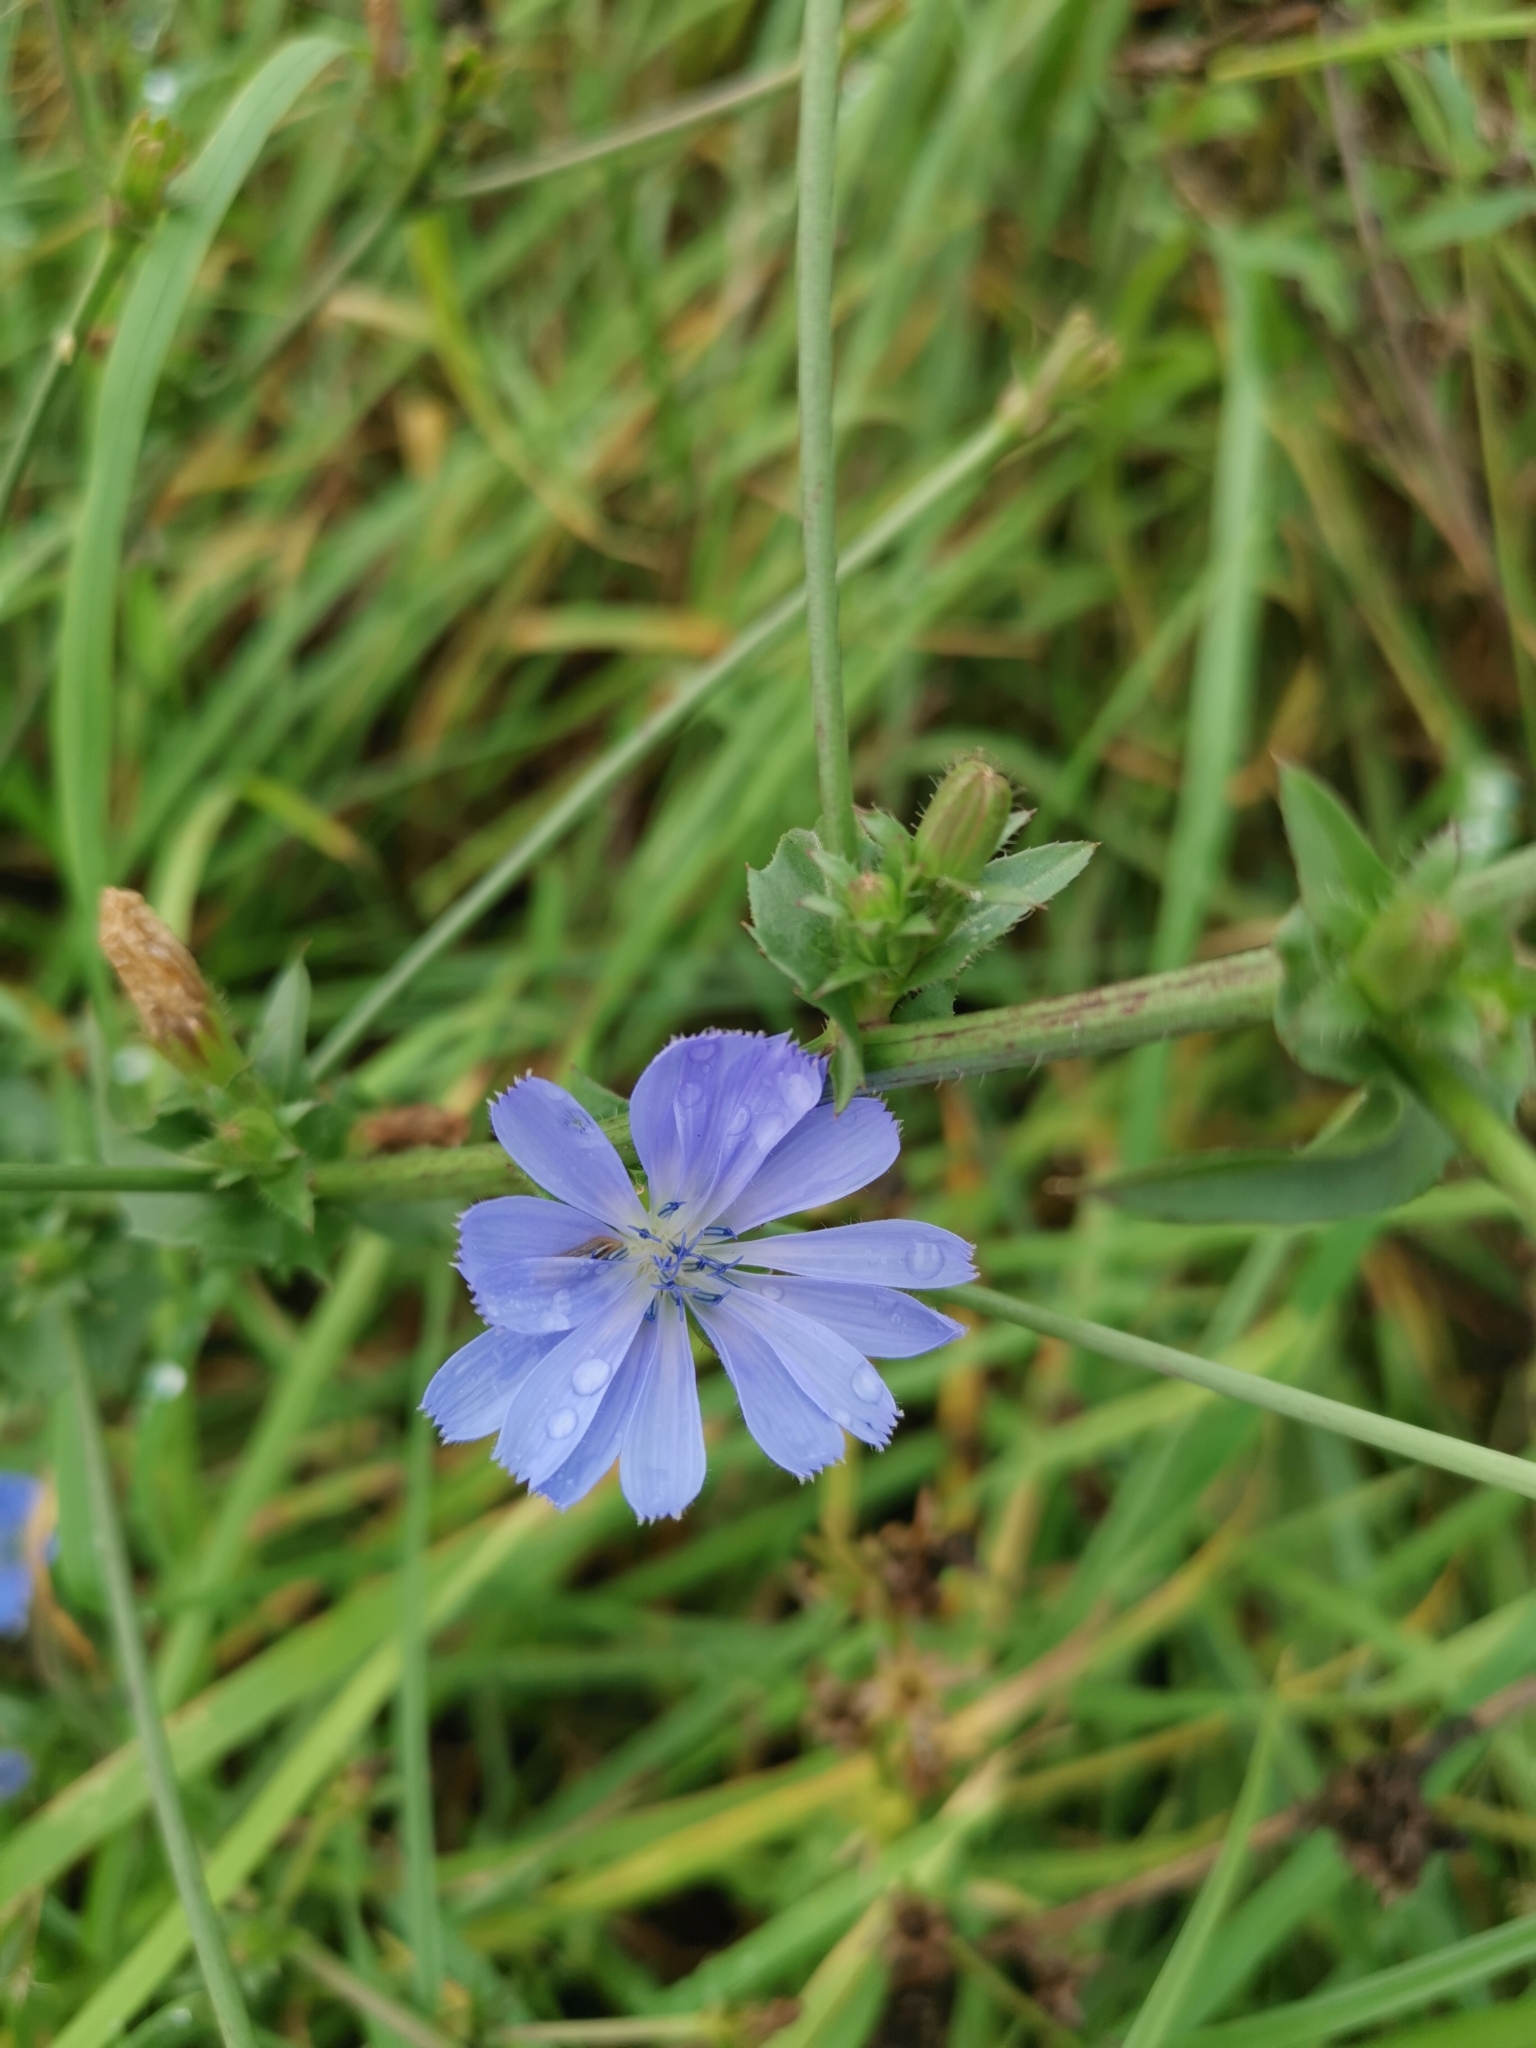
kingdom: Plantae
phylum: Tracheophyta
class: Magnoliopsida
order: Asterales
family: Asteraceae
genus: Cichorium
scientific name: Cichorium intybus
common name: Chicory
